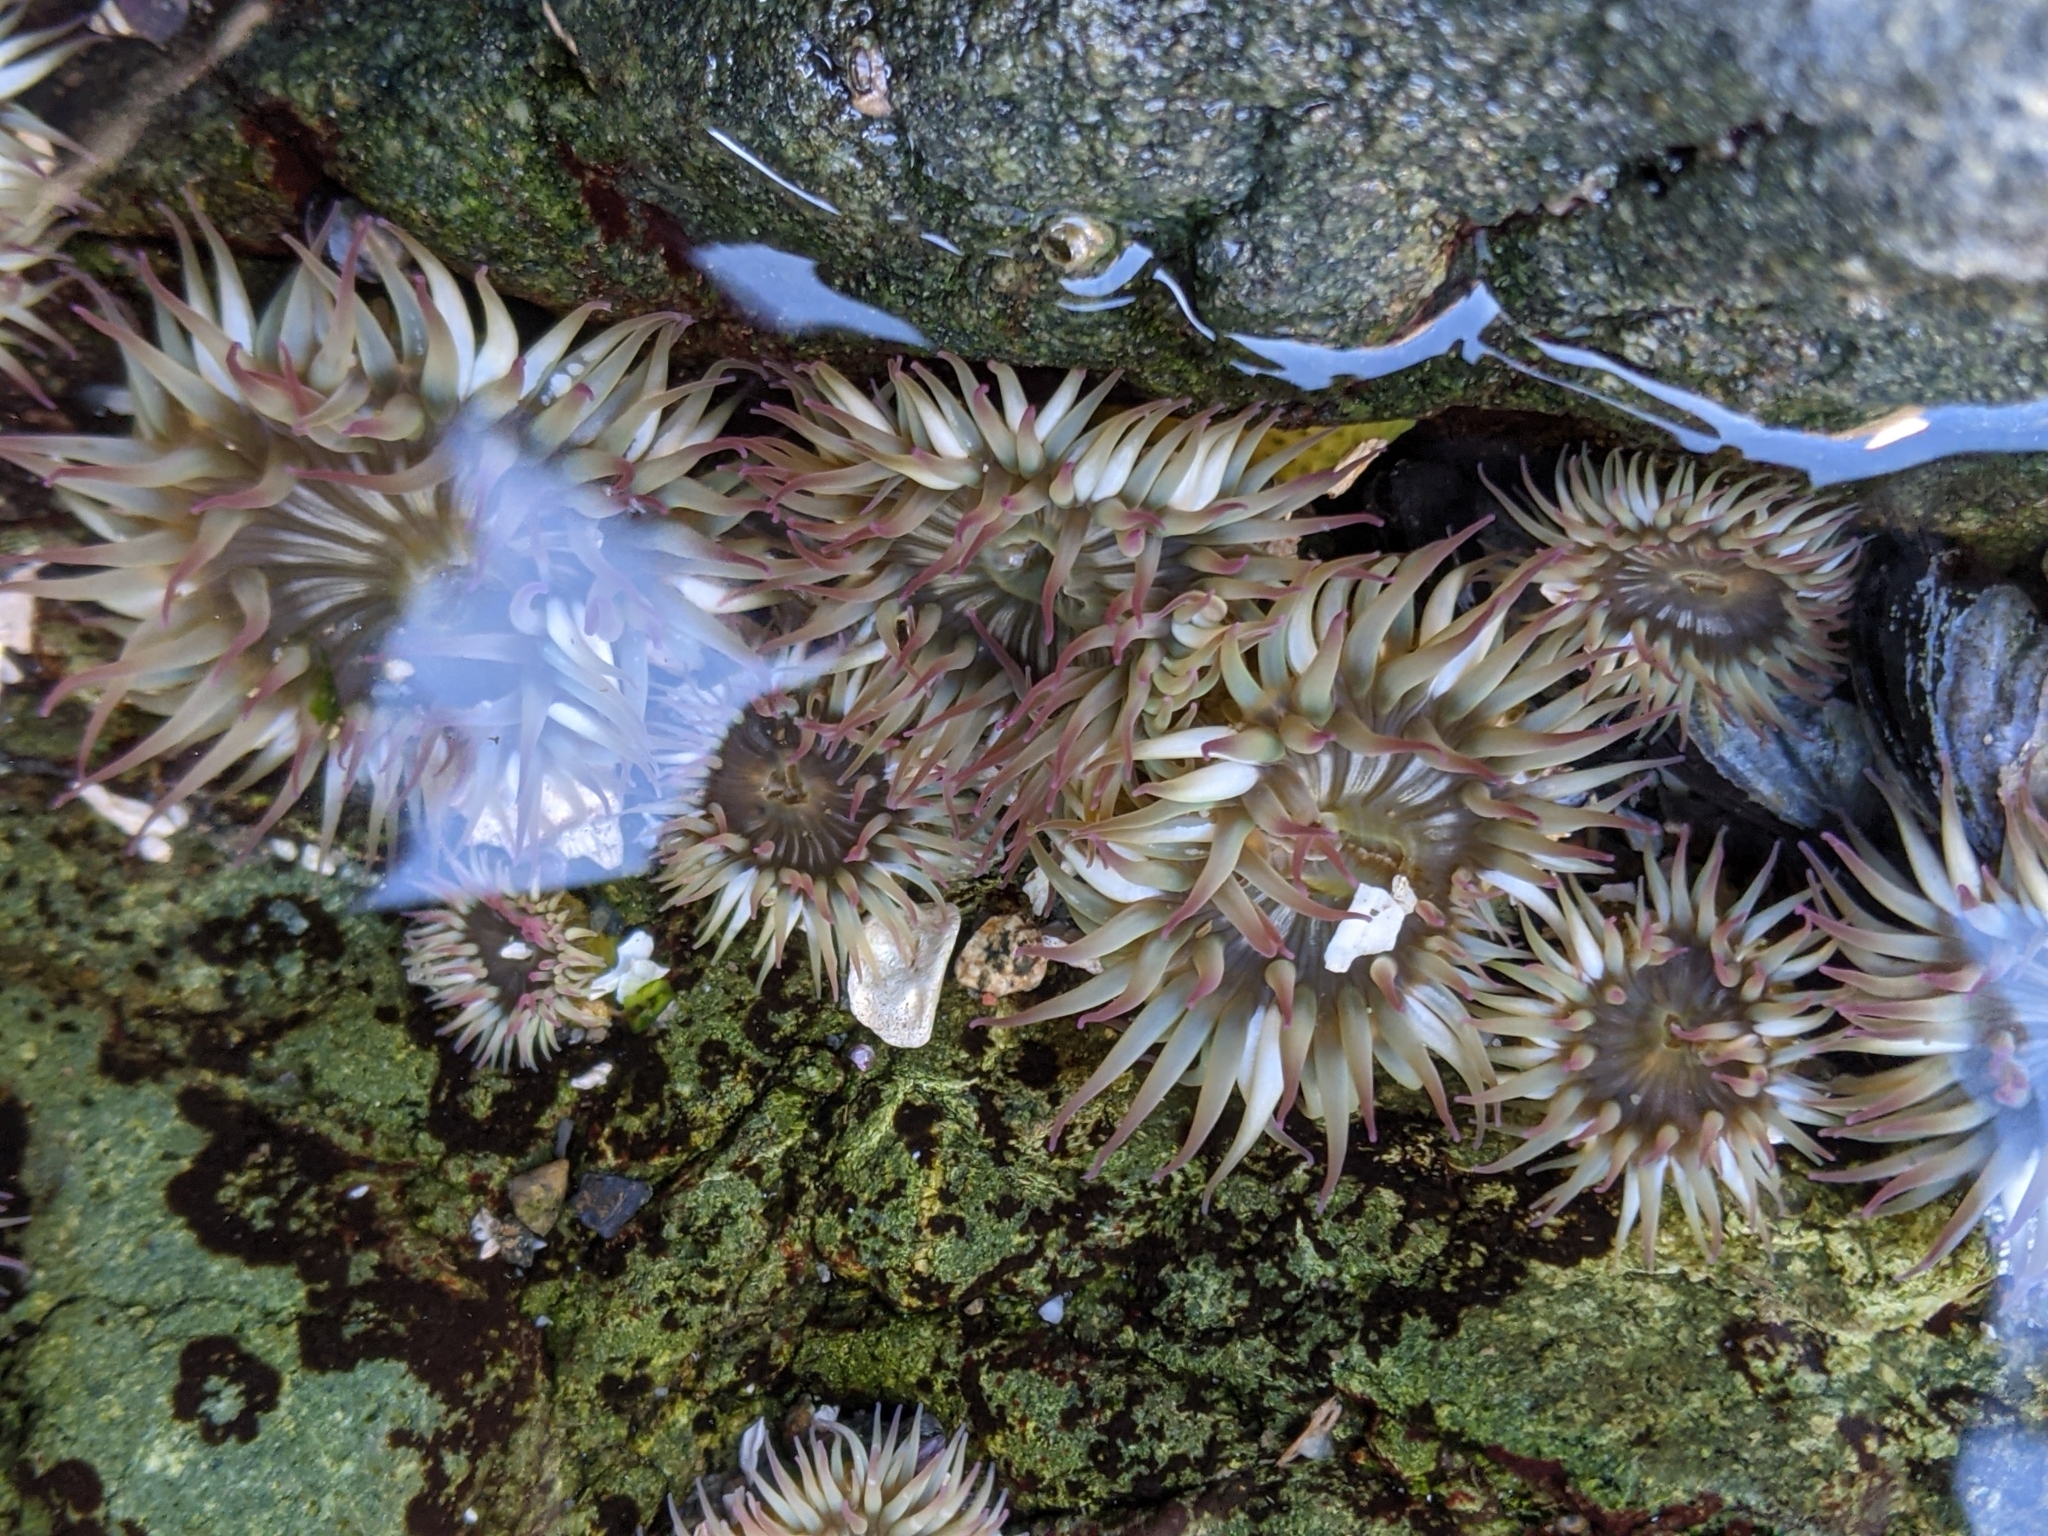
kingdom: Animalia
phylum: Cnidaria
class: Anthozoa
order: Actiniaria
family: Actiniidae
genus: Anthopleura
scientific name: Anthopleura elegantissima
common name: Clonal anemone
